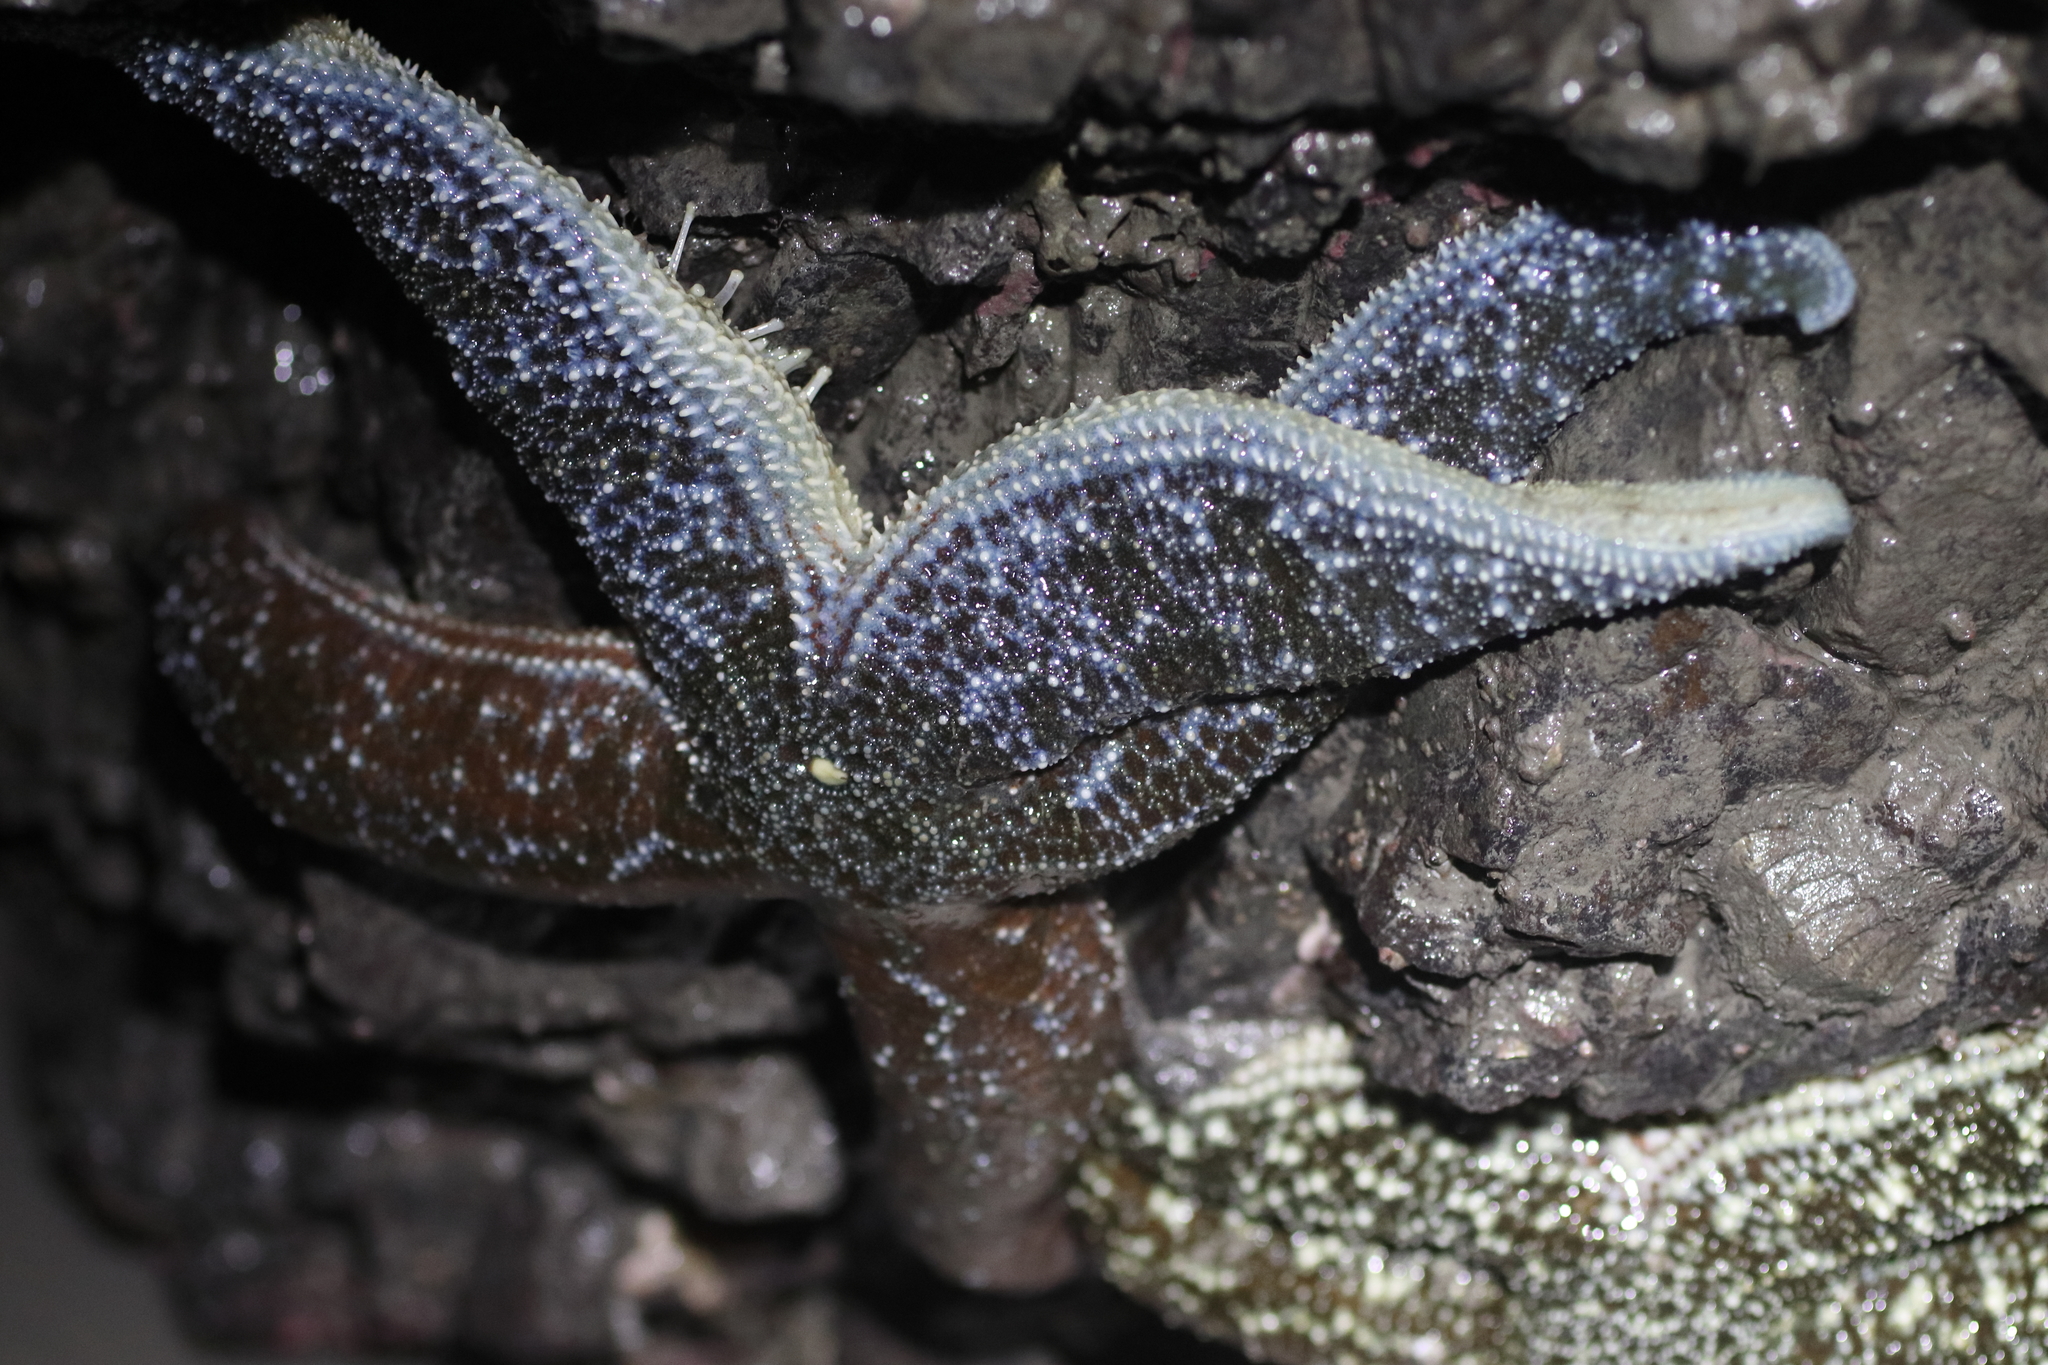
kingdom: Animalia
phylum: Echinodermata
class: Asteroidea
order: Forcipulatida
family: Asteriidae
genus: Evasterias
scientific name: Evasterias troschelii
